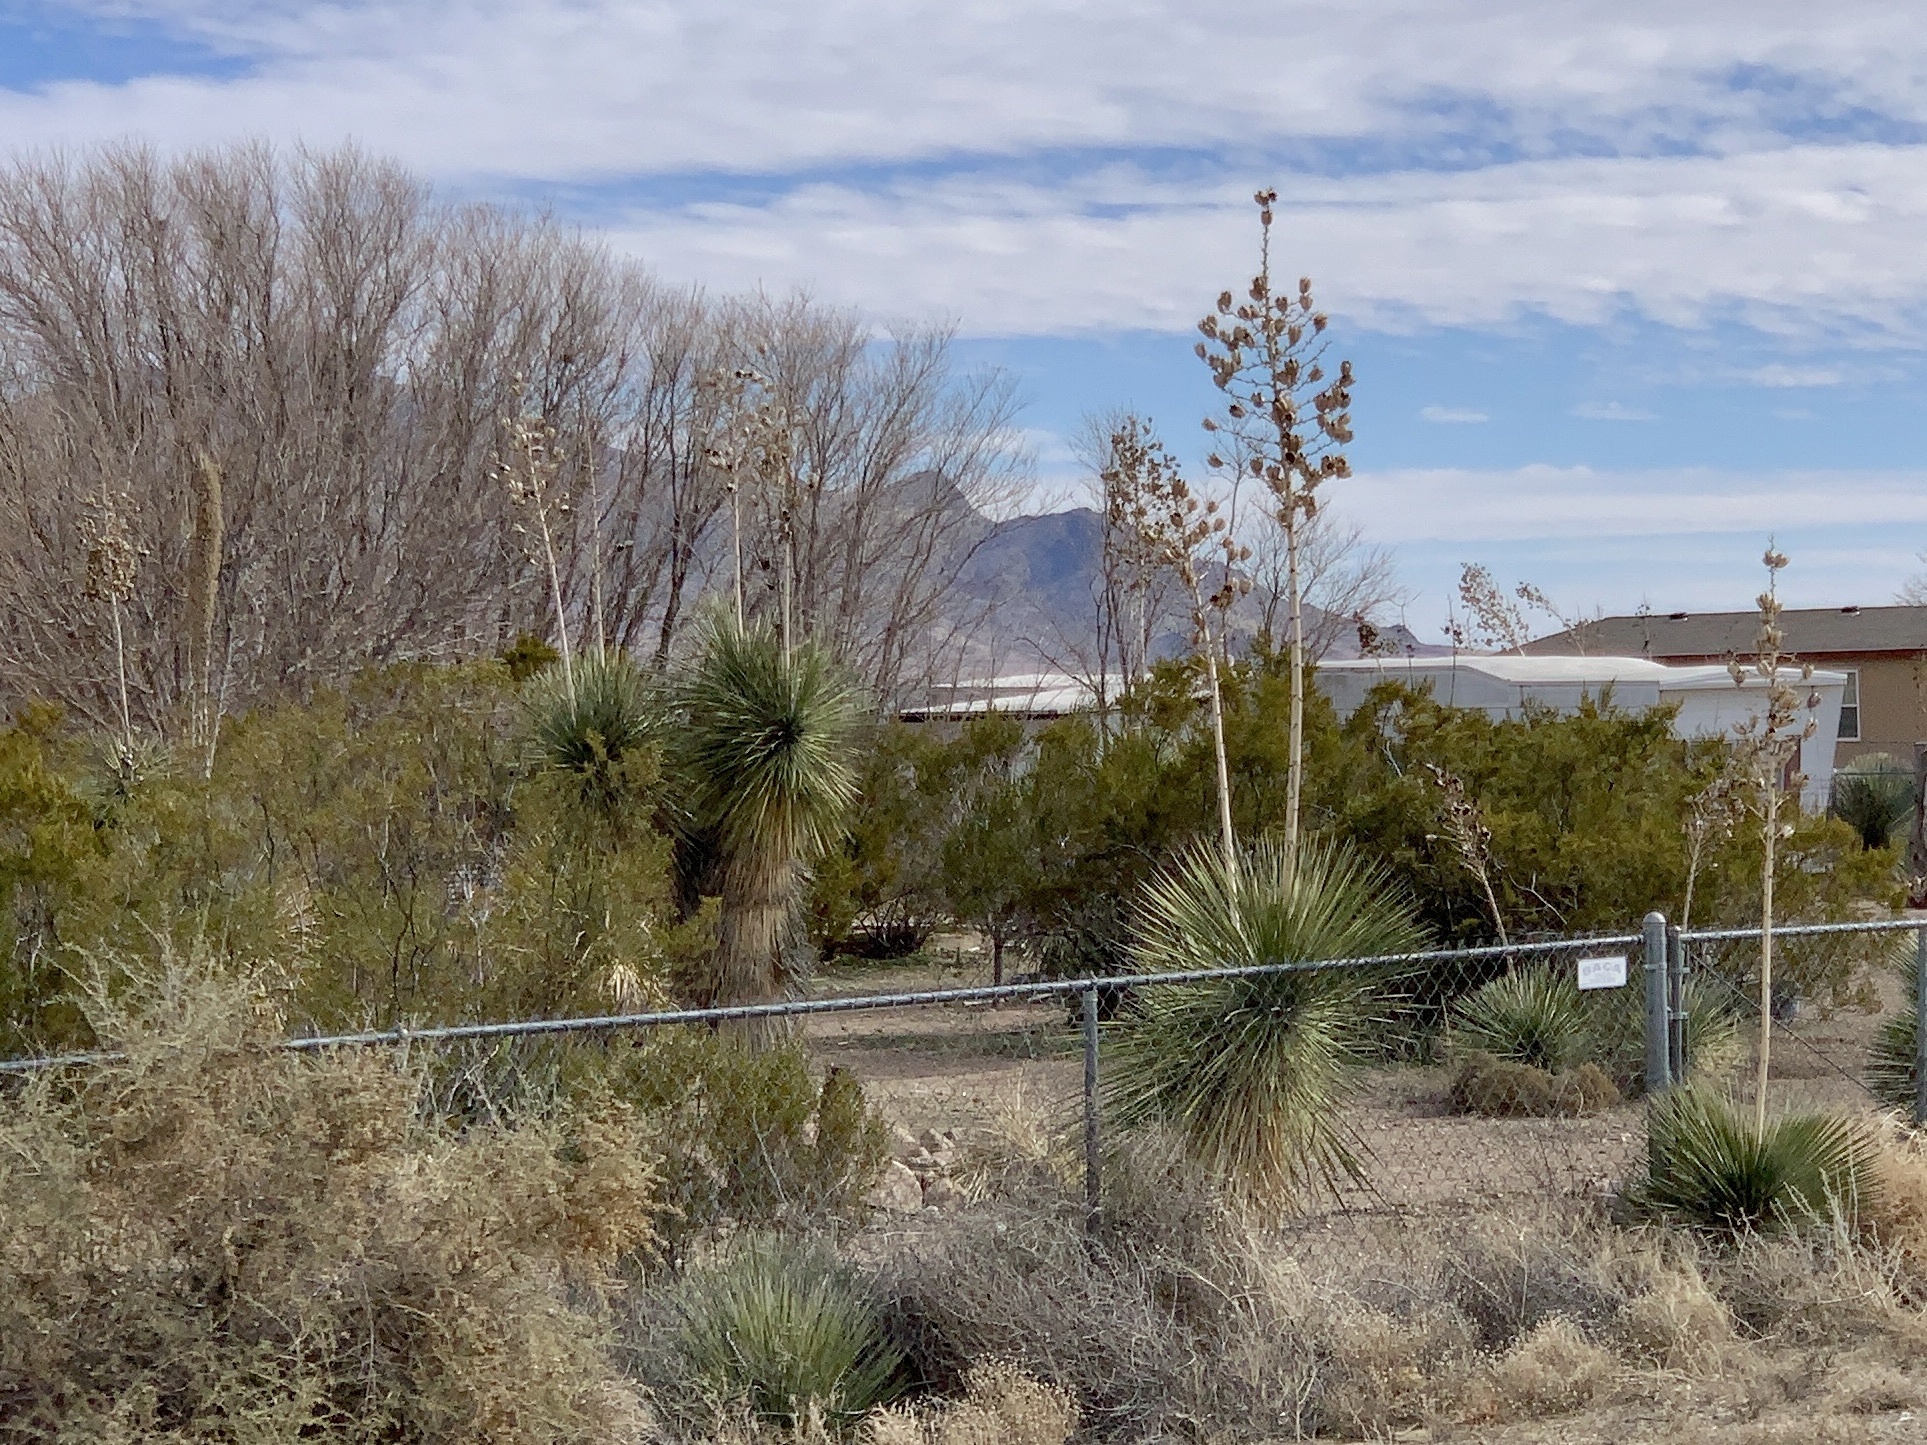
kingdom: Plantae
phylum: Tracheophyta
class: Liliopsida
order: Asparagales
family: Asparagaceae
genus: Yucca
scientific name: Yucca elata
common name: Palmella
